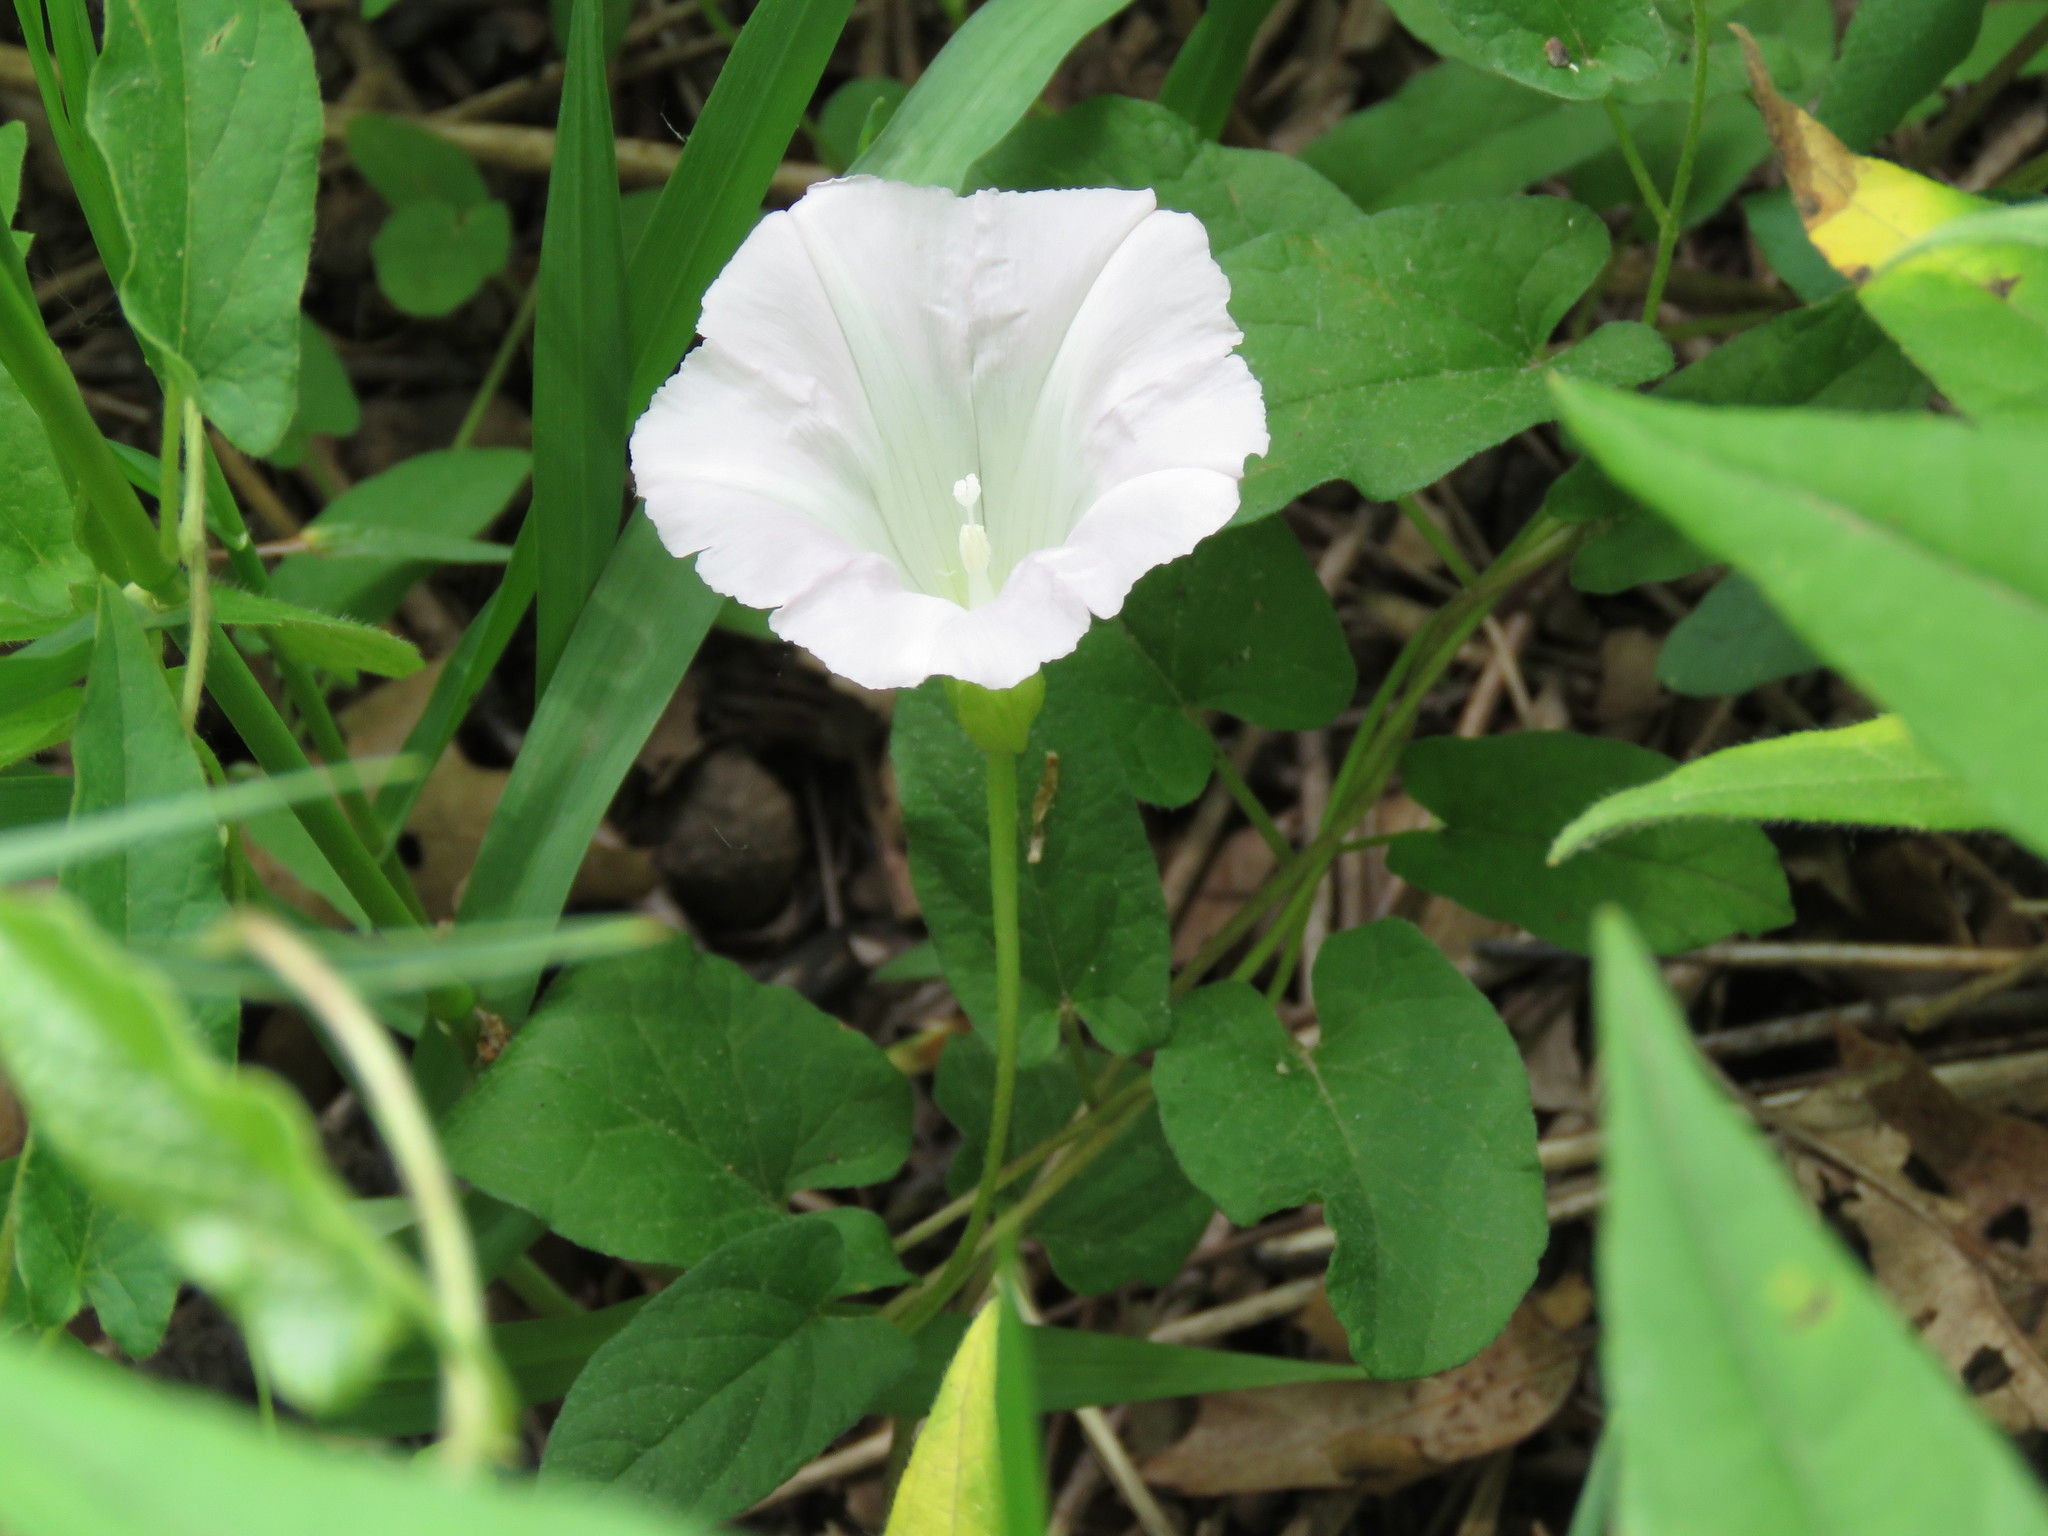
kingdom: Plantae
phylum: Tracheophyta
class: Magnoliopsida
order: Solanales
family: Convolvulaceae
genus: Calystegia
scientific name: Calystegia spithamaea
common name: Dwarf bindweed
